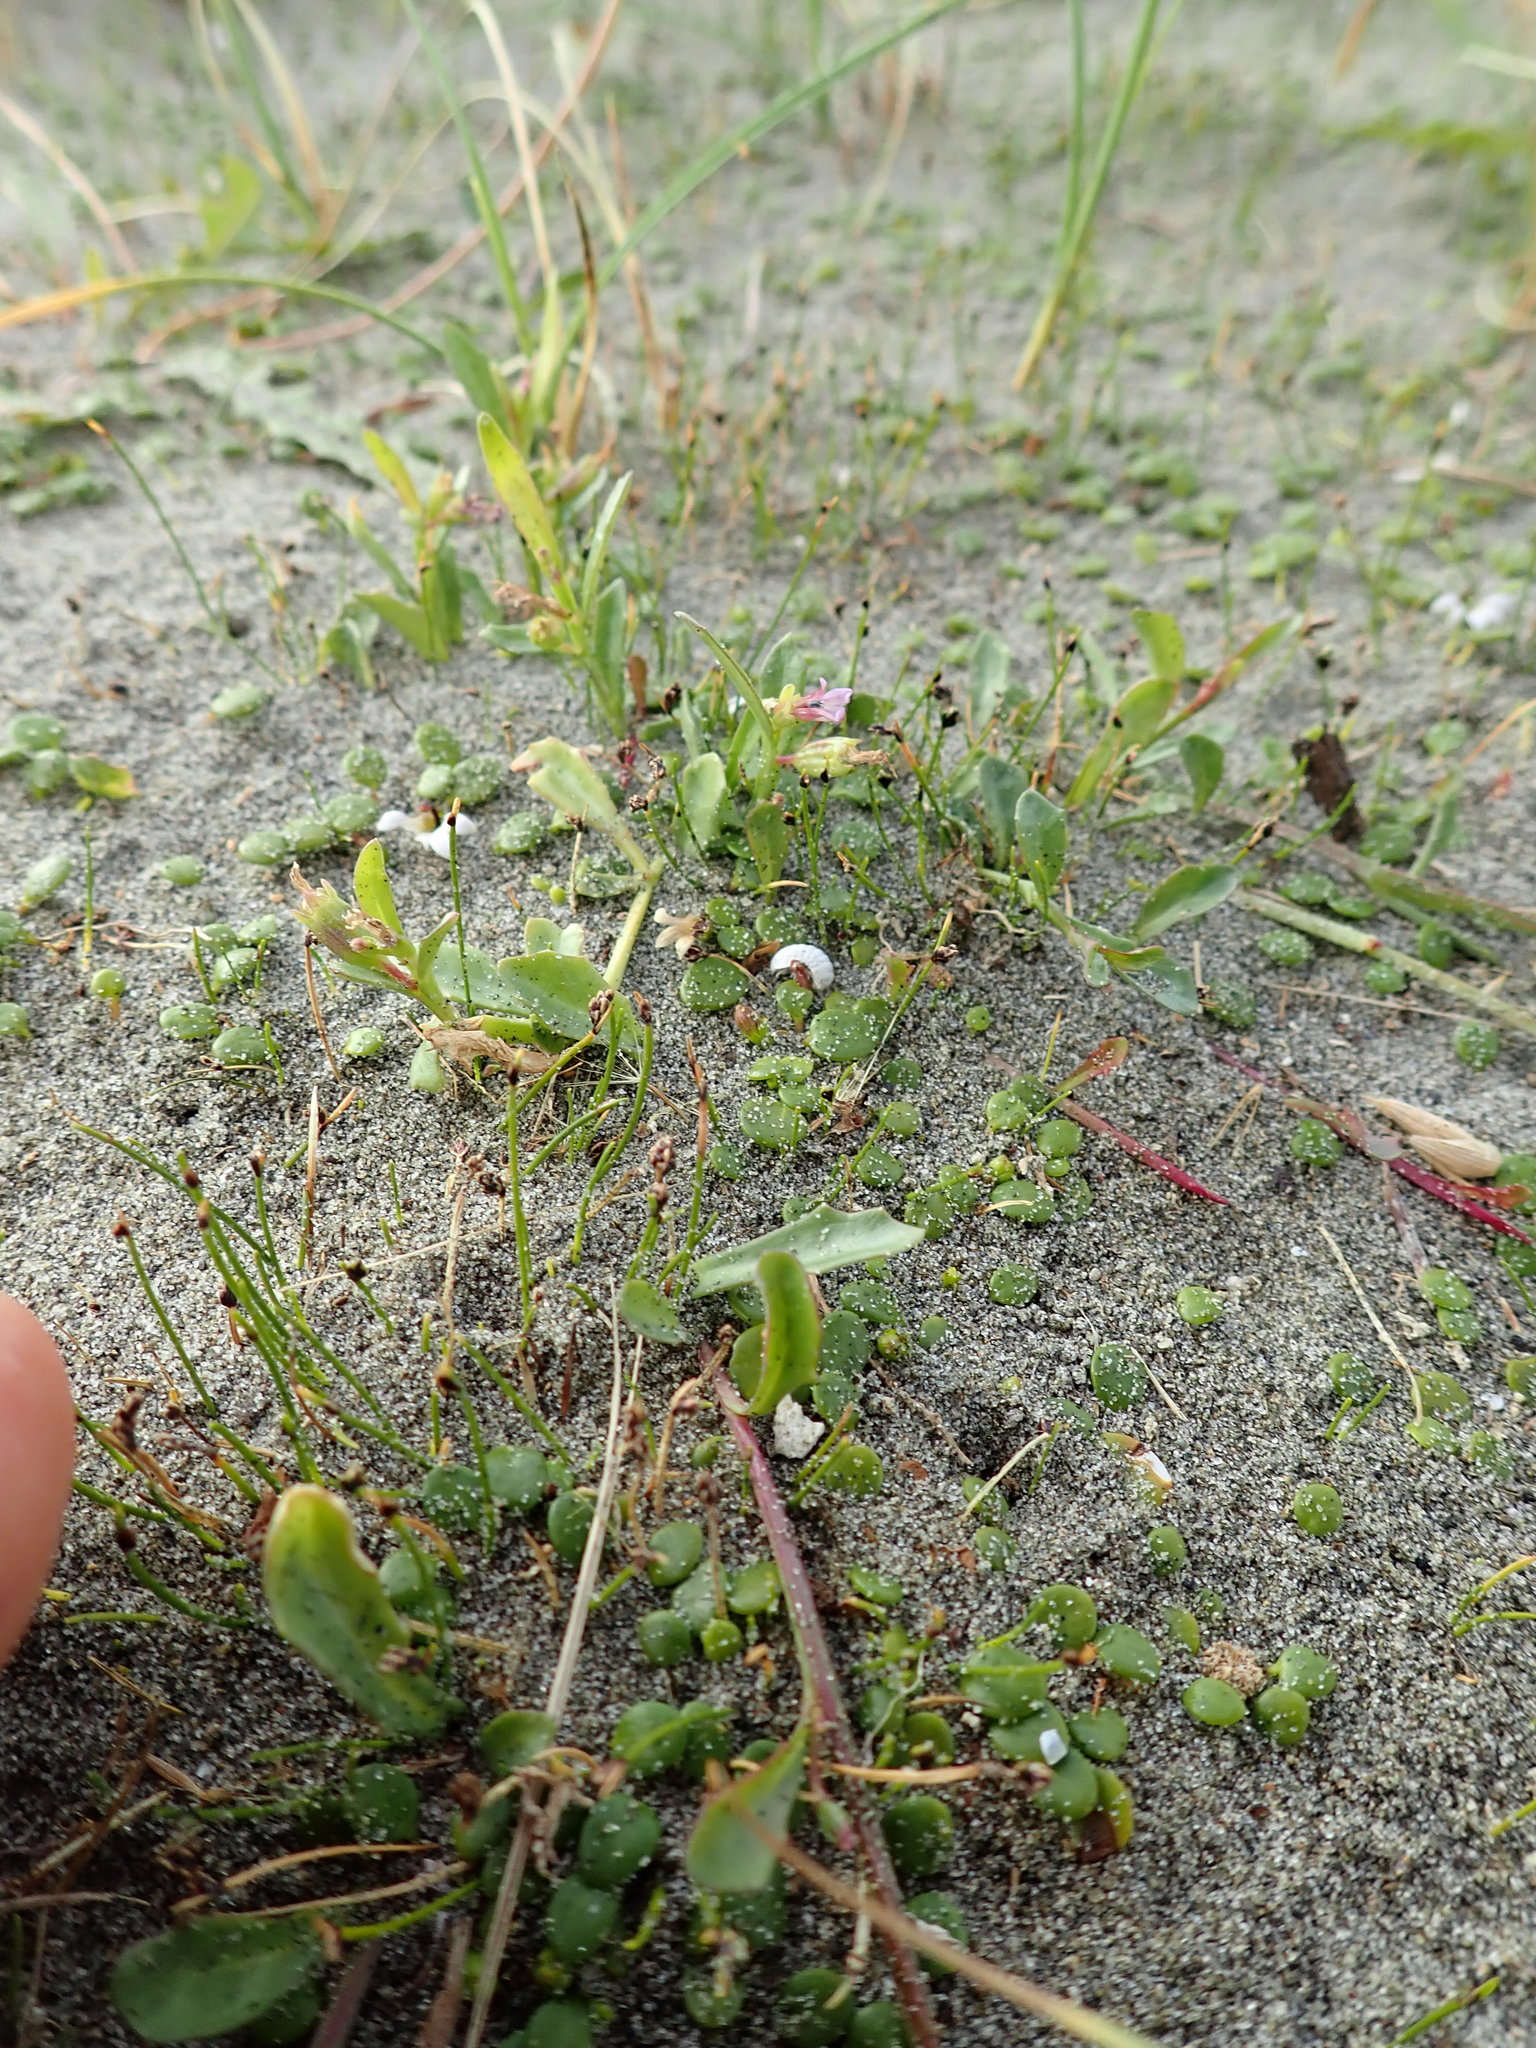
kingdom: Plantae
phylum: Tracheophyta
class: Magnoliopsida
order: Asterales
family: Campanulaceae
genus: Lobelia
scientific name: Lobelia anceps
